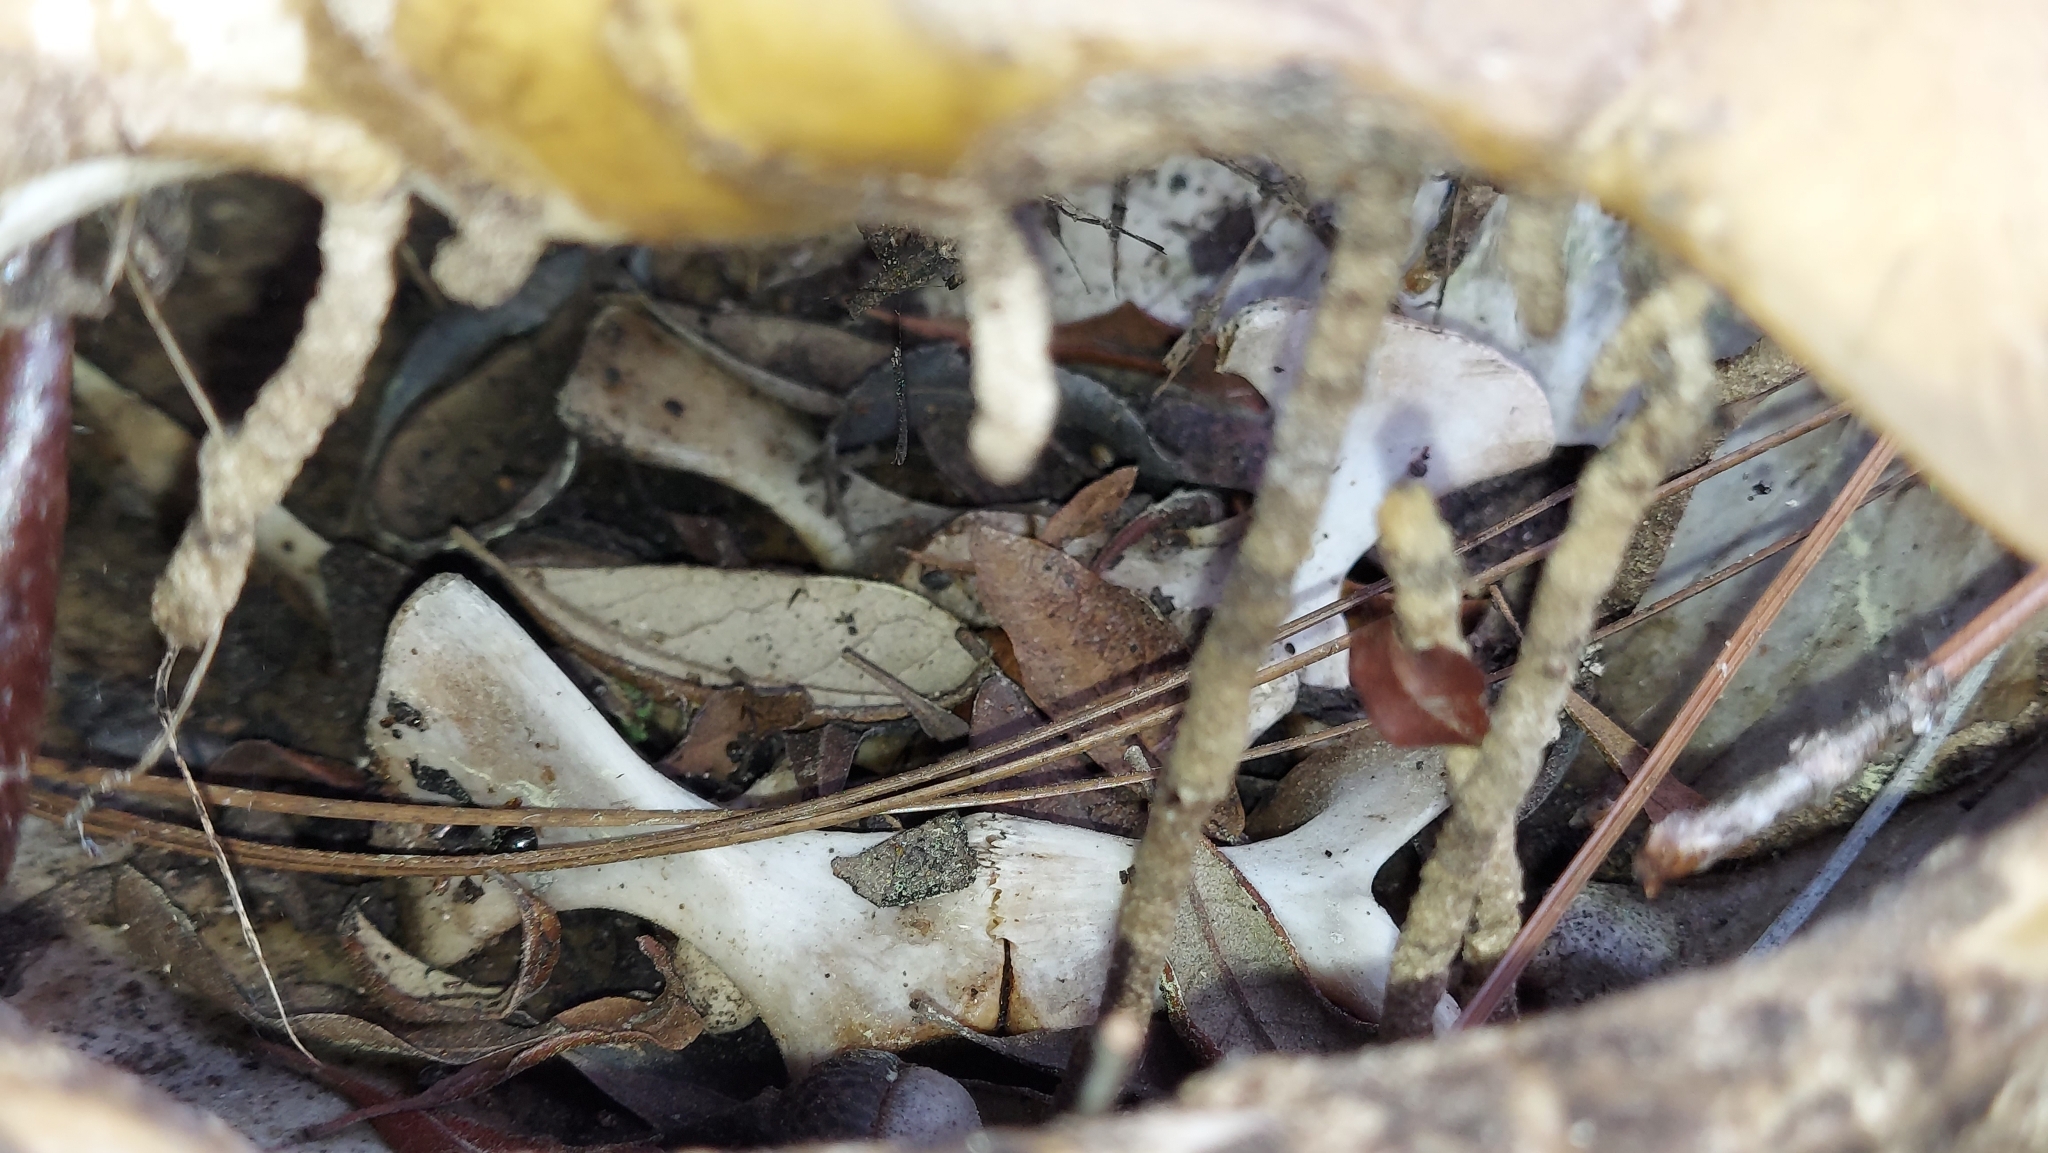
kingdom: Animalia
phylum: Chordata
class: Testudines
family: Testudinidae
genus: Gopherus
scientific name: Gopherus polyphemus
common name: Florida gopher tortoise
